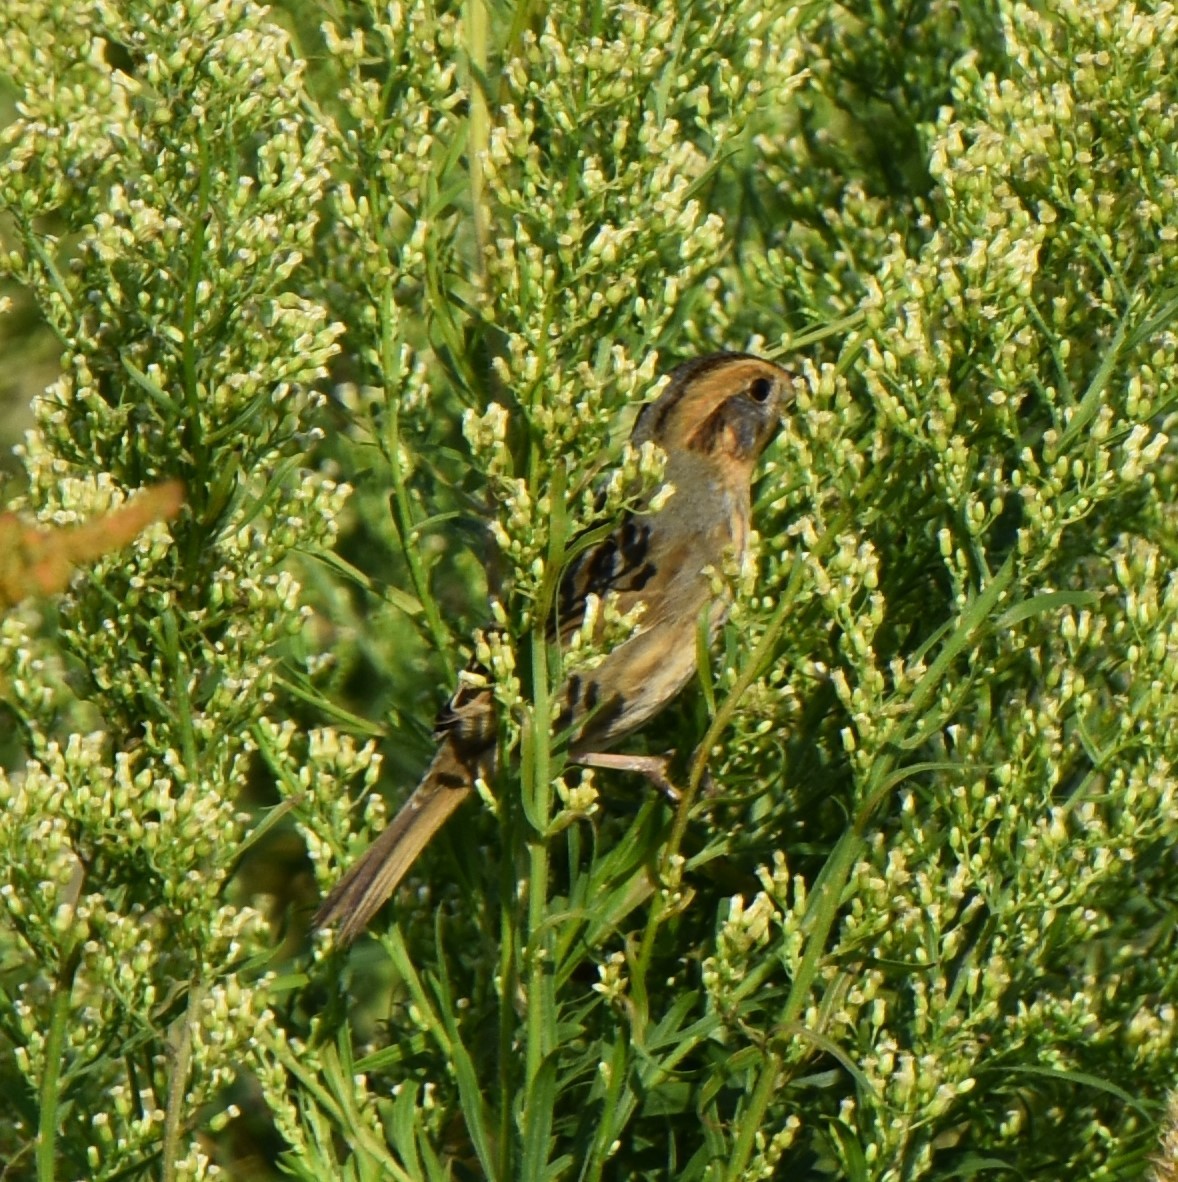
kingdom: Animalia
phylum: Chordata
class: Aves
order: Passeriformes
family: Passerellidae
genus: Ammospiza
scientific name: Ammospiza nelsoni
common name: Nelson's sparrow
